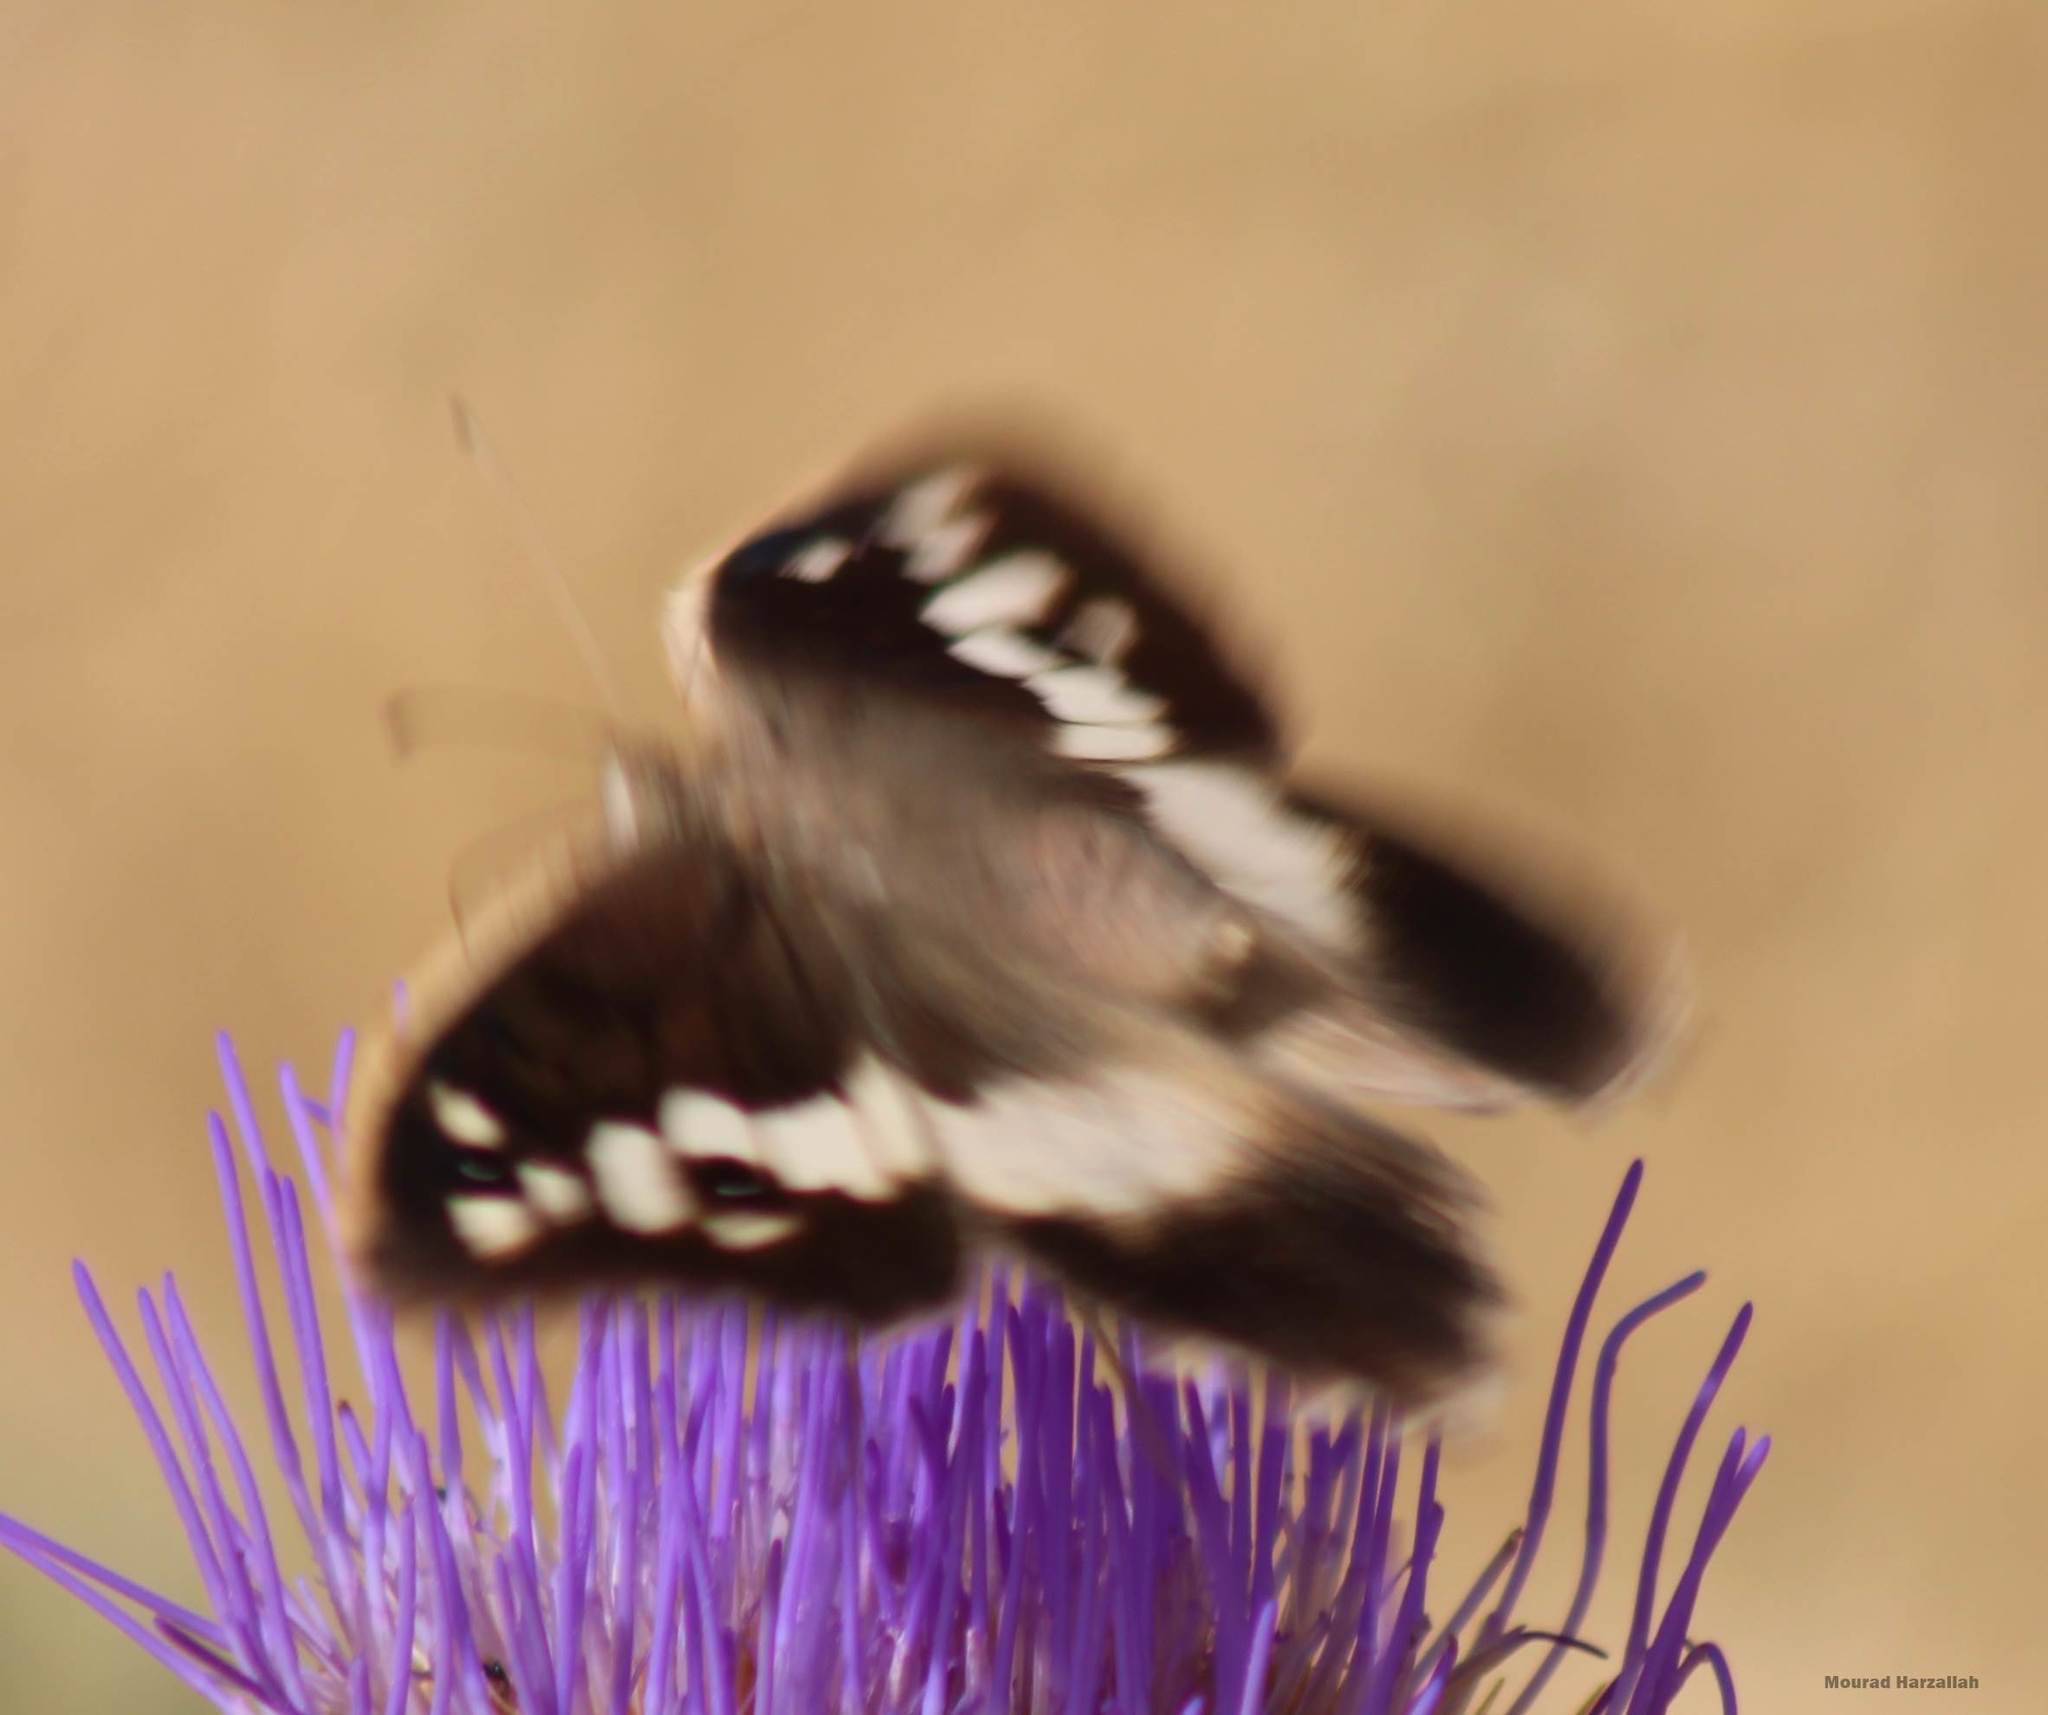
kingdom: Animalia
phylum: Arthropoda
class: Insecta
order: Lepidoptera
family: Nymphalidae
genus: Satyrus
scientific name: Satyrus briseis
